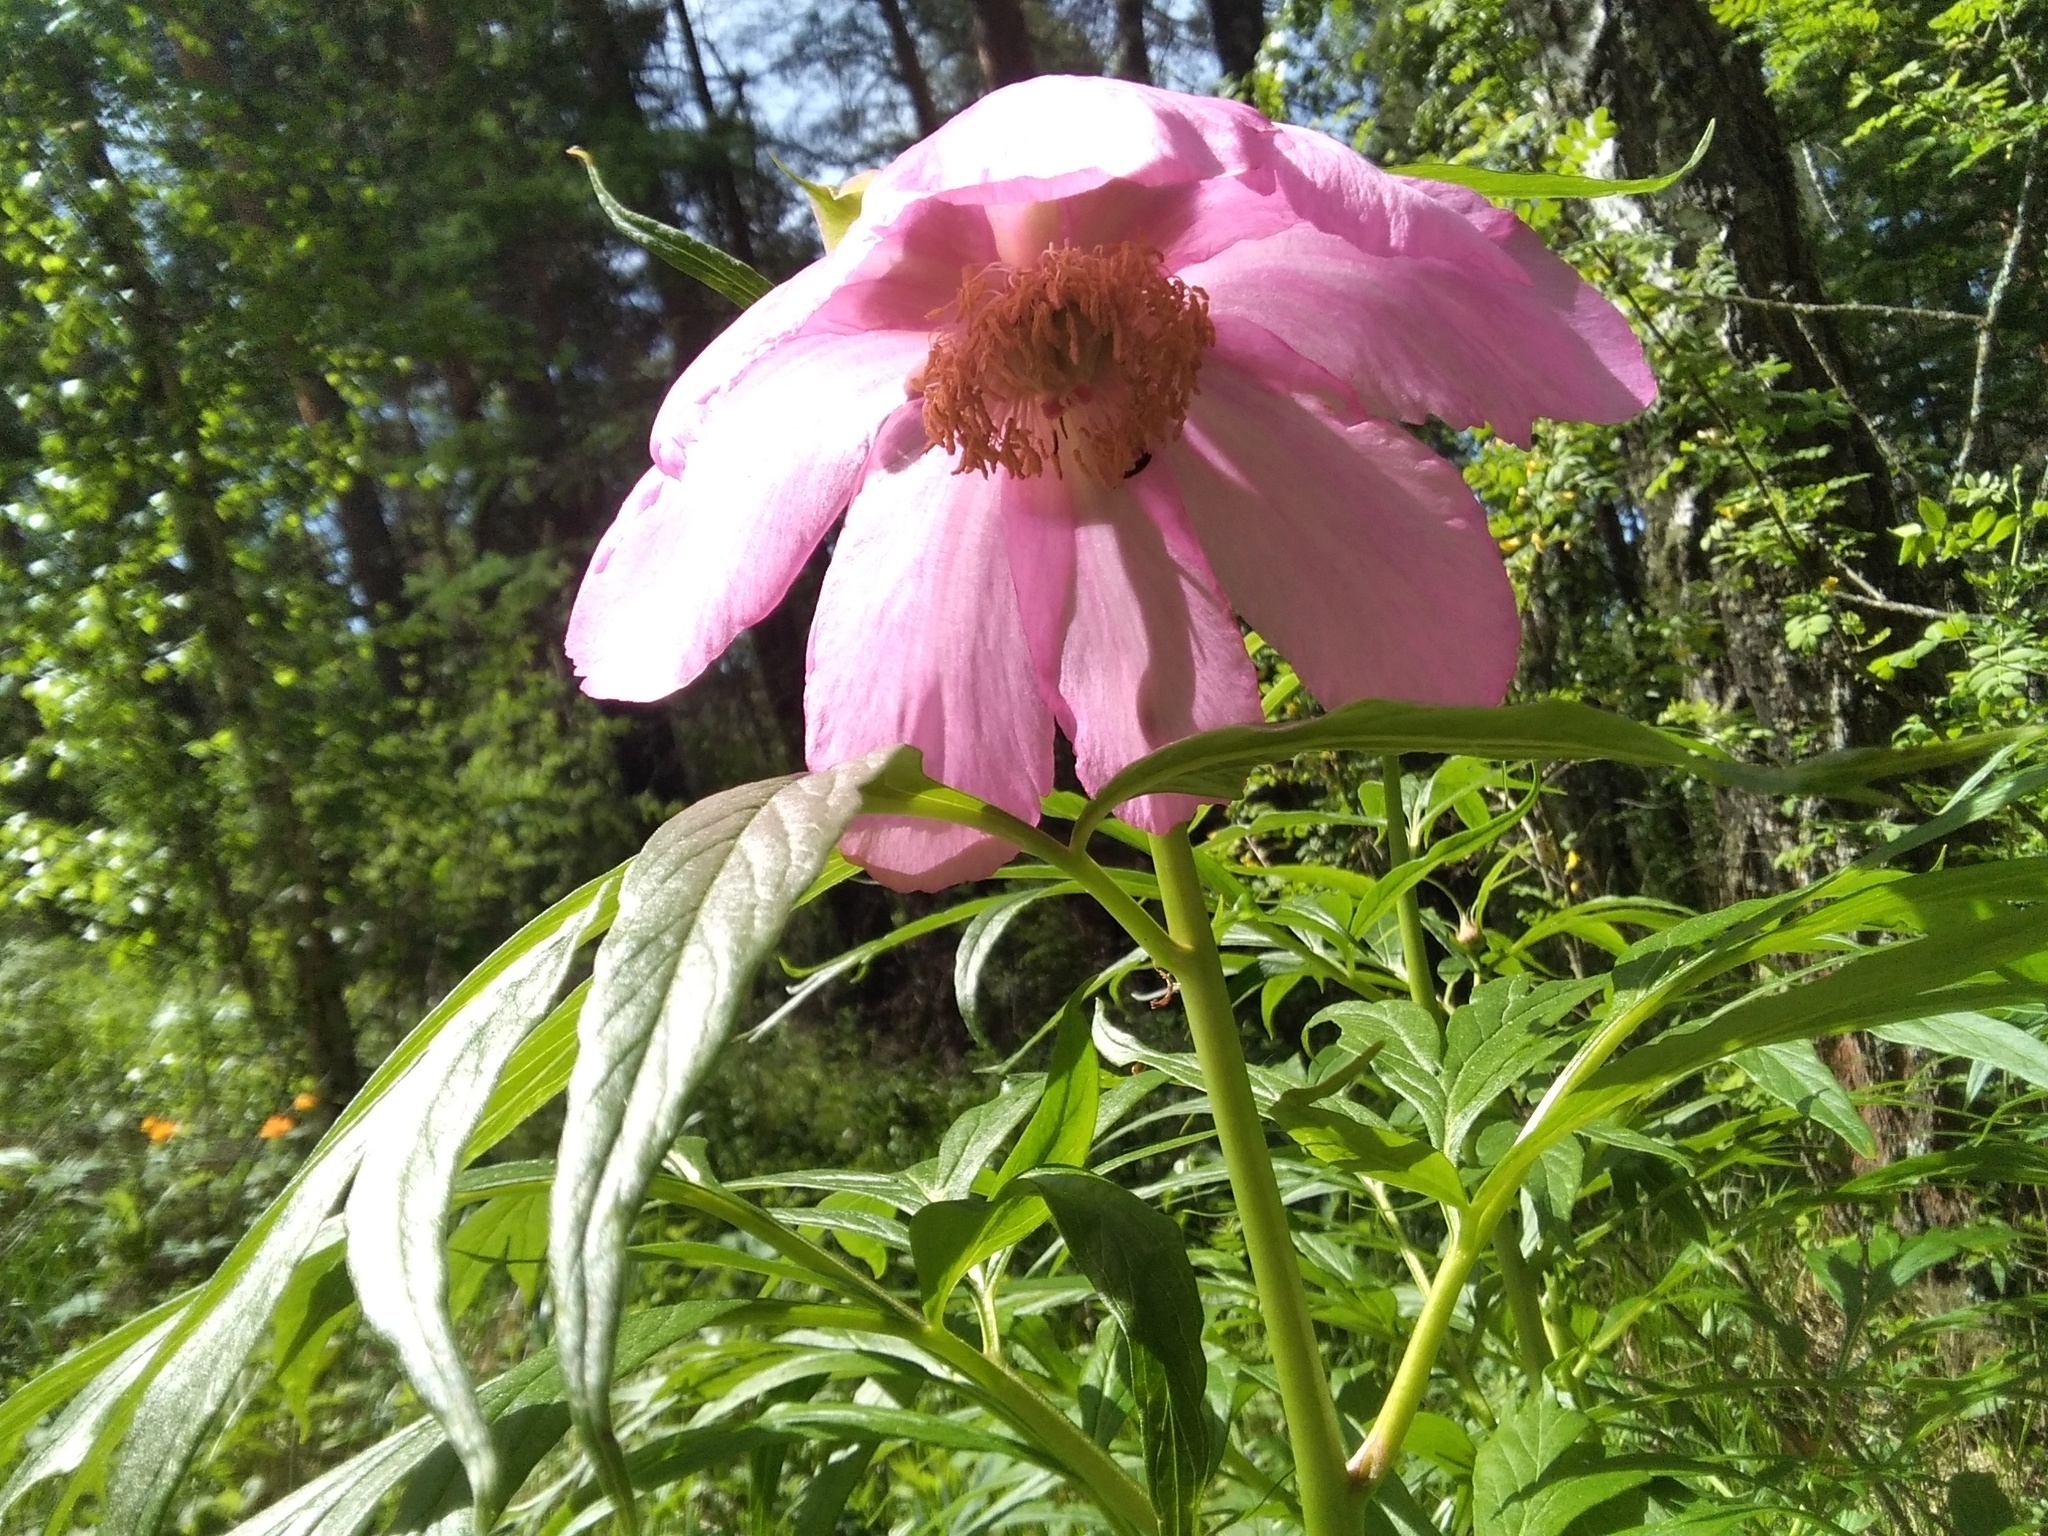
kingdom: Plantae
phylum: Tracheophyta
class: Magnoliopsida
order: Saxifragales
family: Paeoniaceae
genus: Paeonia
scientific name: Paeonia anomala
